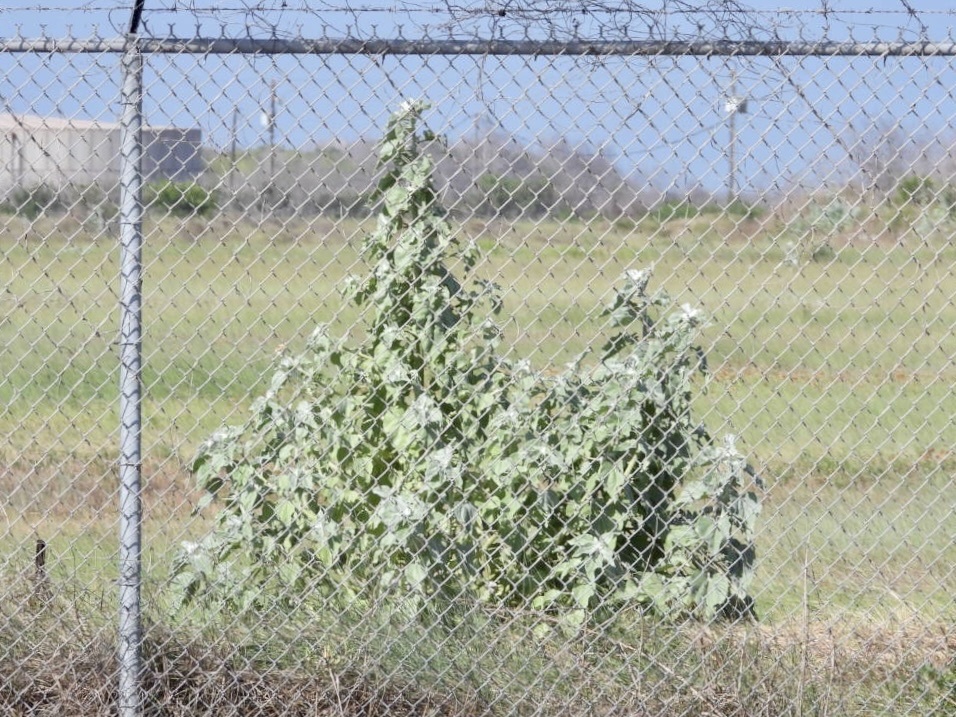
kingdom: Plantae
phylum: Tracheophyta
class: Magnoliopsida
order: Asterales
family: Asteraceae
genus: Helianthus
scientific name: Helianthus argophyllus
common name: Silverleaf sunflower
